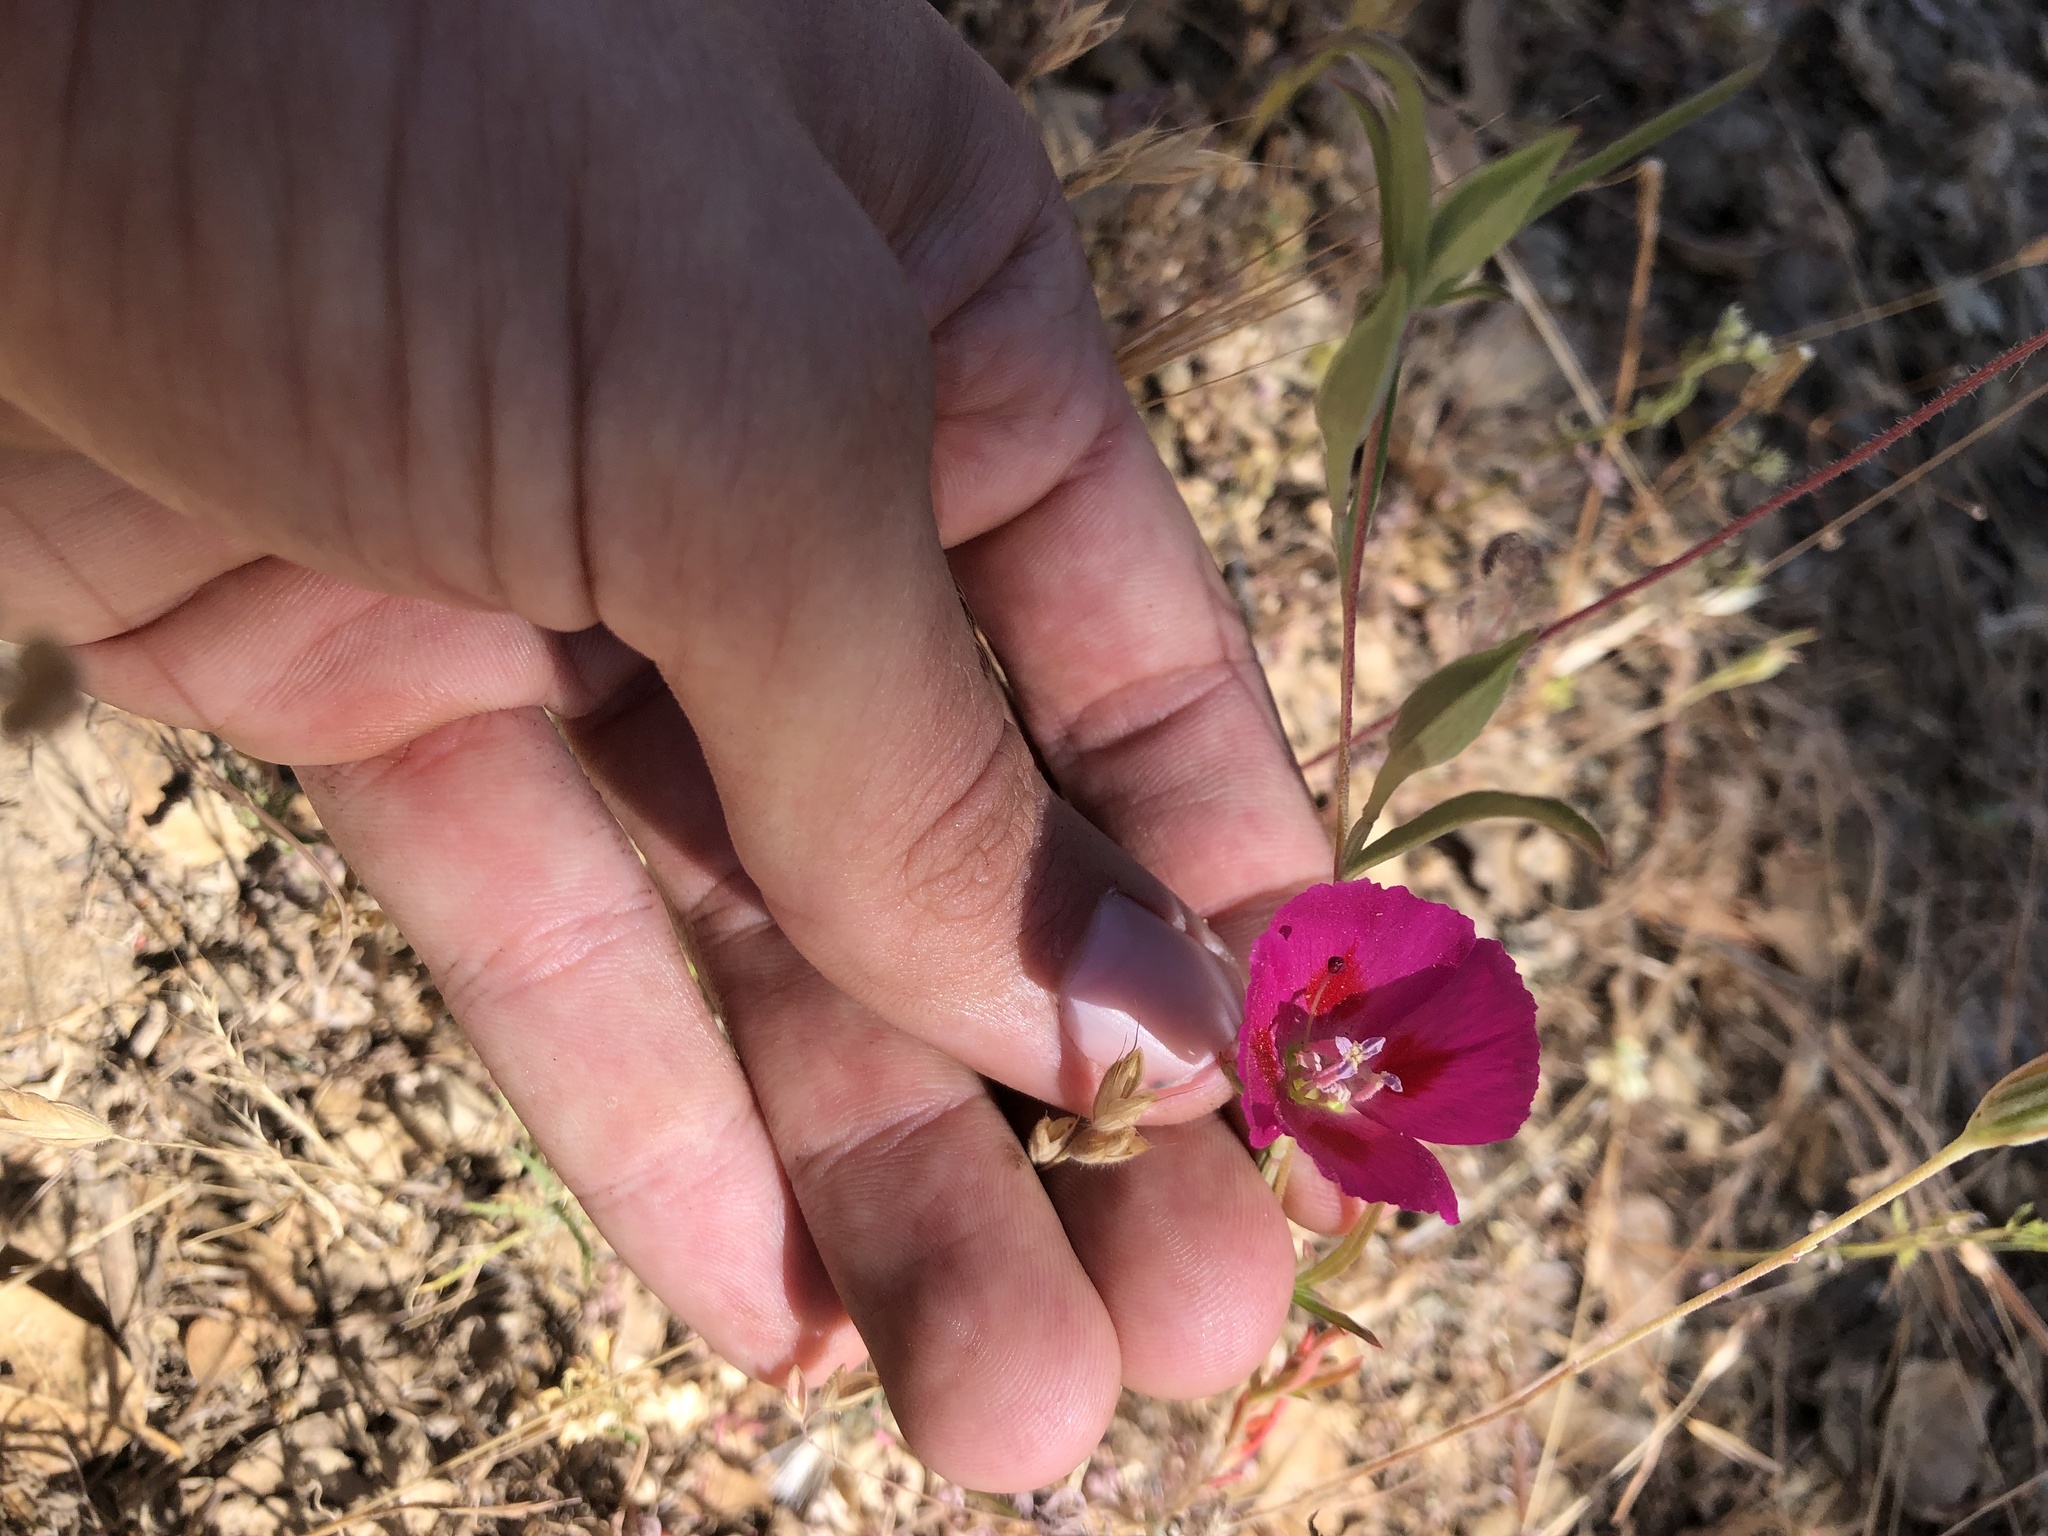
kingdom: Plantae
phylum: Tracheophyta
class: Magnoliopsida
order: Myrtales
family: Onagraceae
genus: Clarkia
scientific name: Clarkia speciosa
